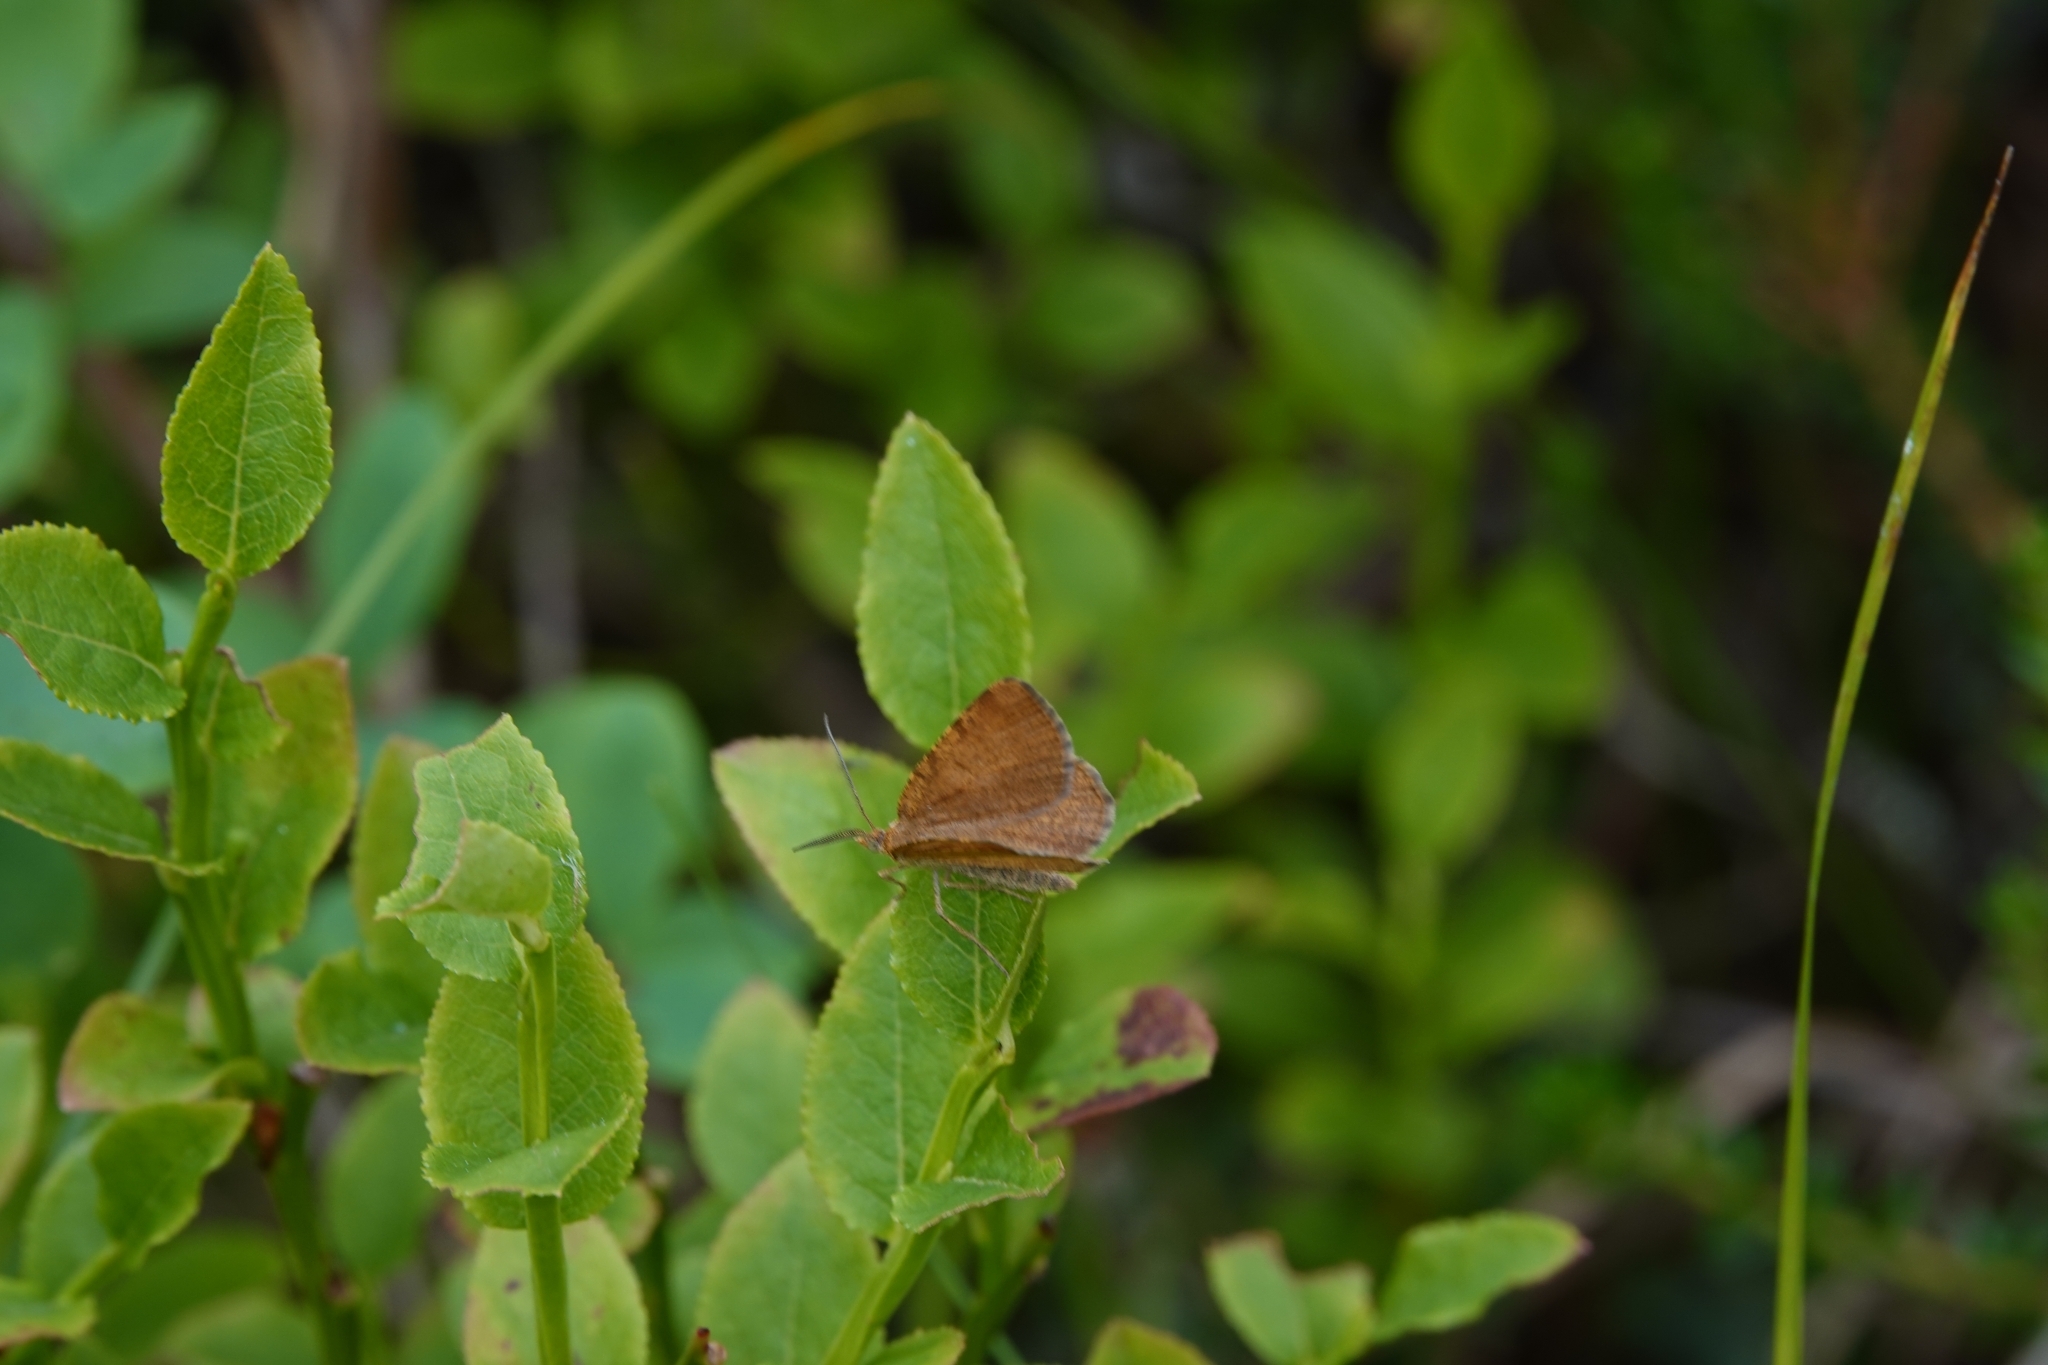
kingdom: Animalia
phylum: Arthropoda
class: Insecta
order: Lepidoptera
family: Geometridae
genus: Macaria
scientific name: Macaria brunneata
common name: Rannoch looper
